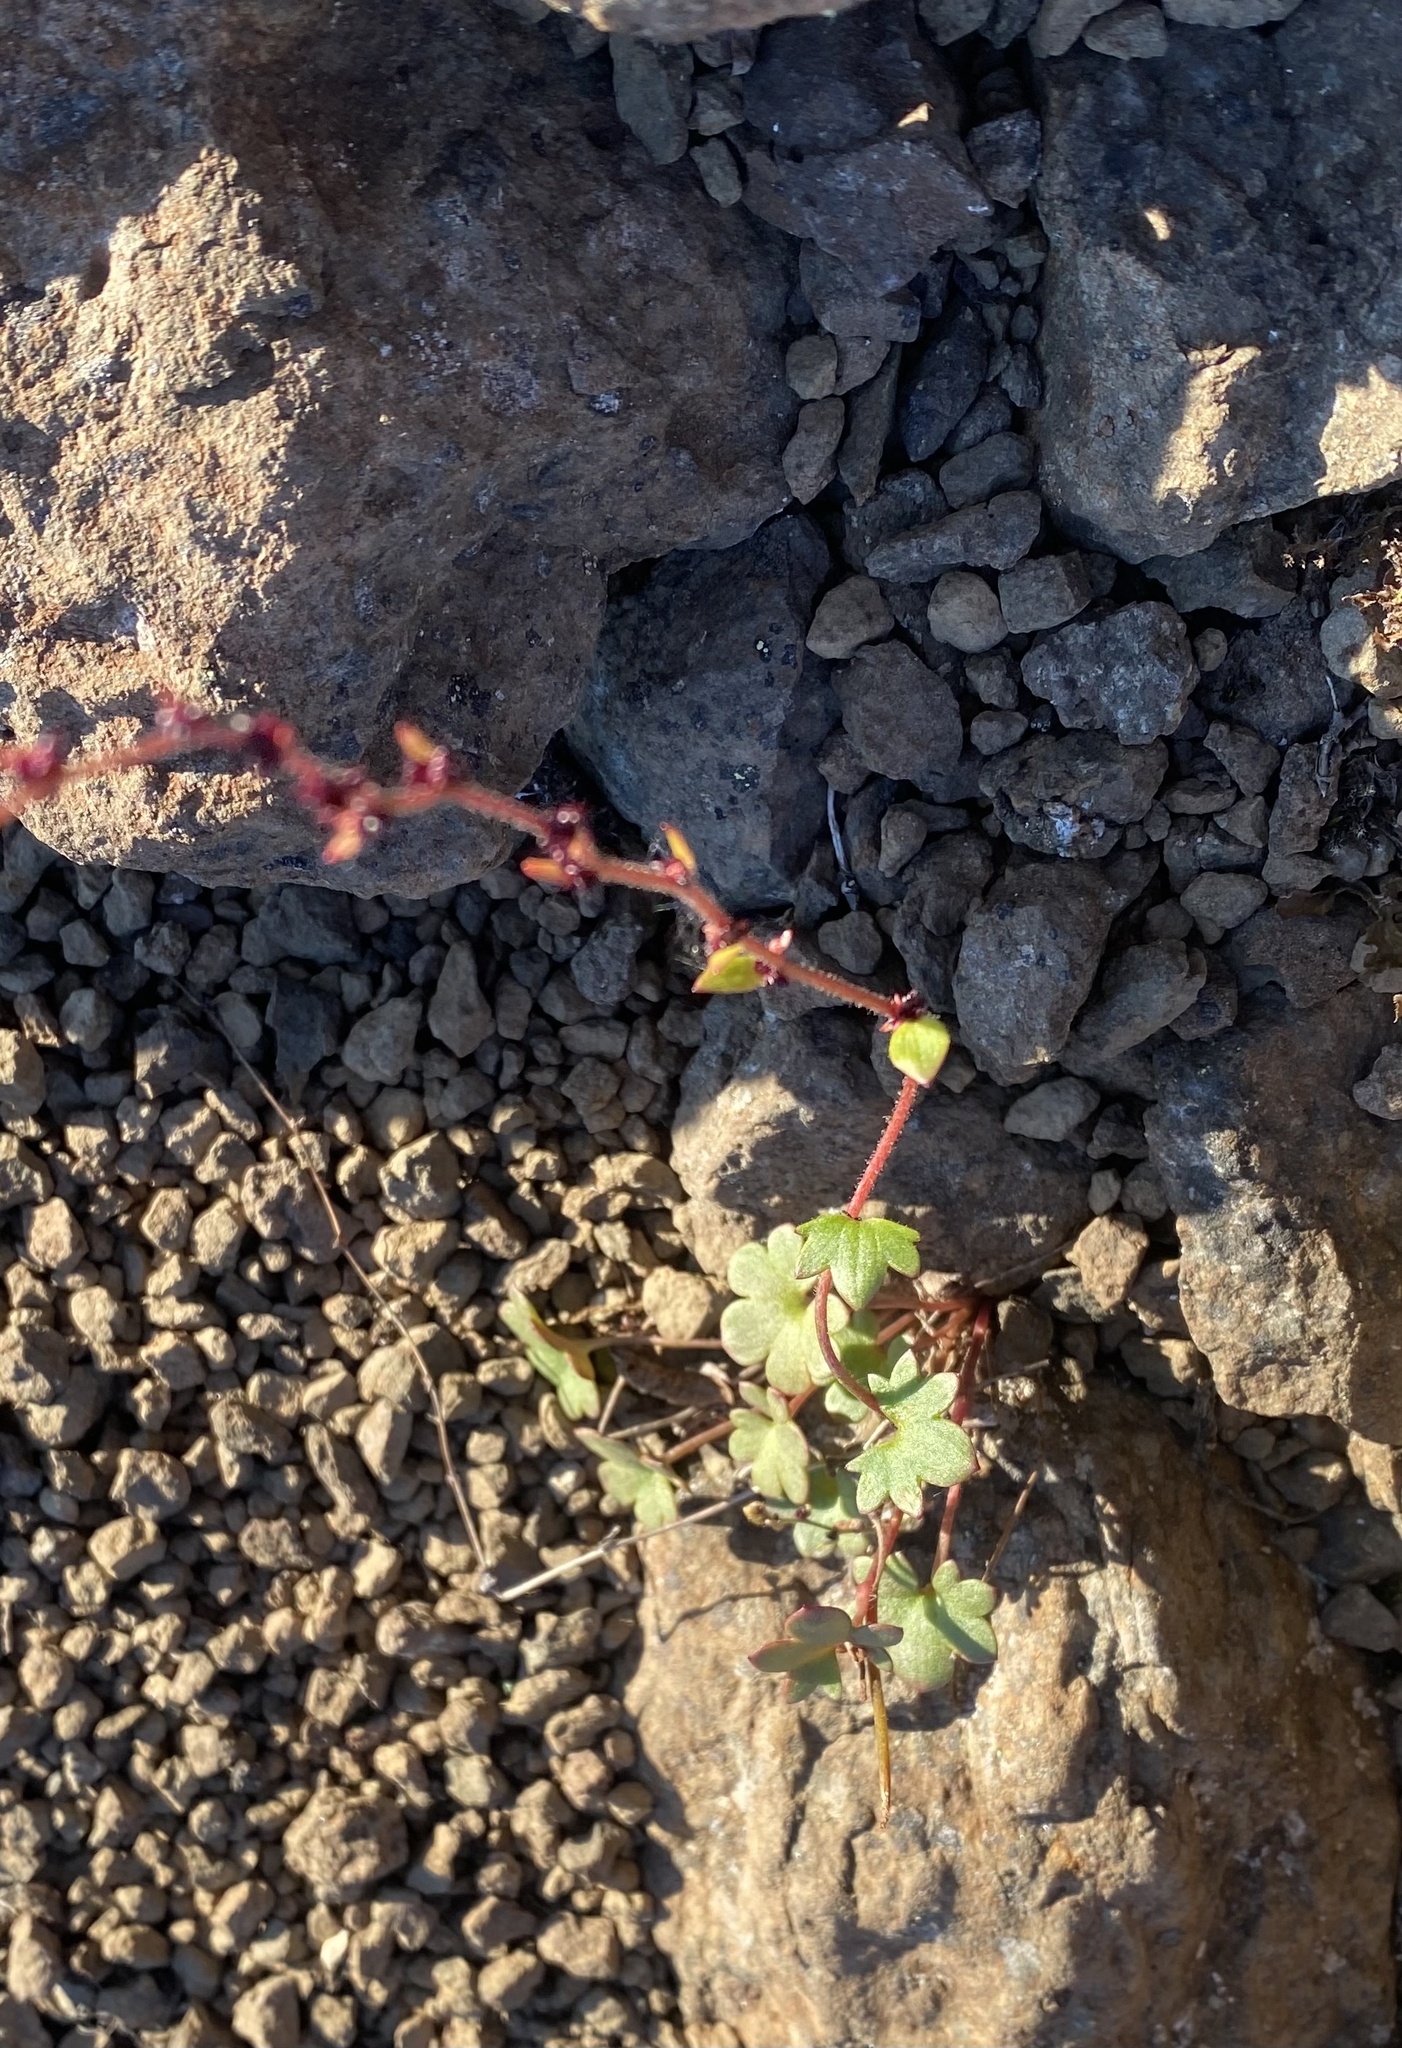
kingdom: Plantae
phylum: Tracheophyta
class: Magnoliopsida
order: Saxifragales
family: Saxifragaceae
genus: Saxifraga
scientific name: Saxifraga cernua
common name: Drooping saxifrage
